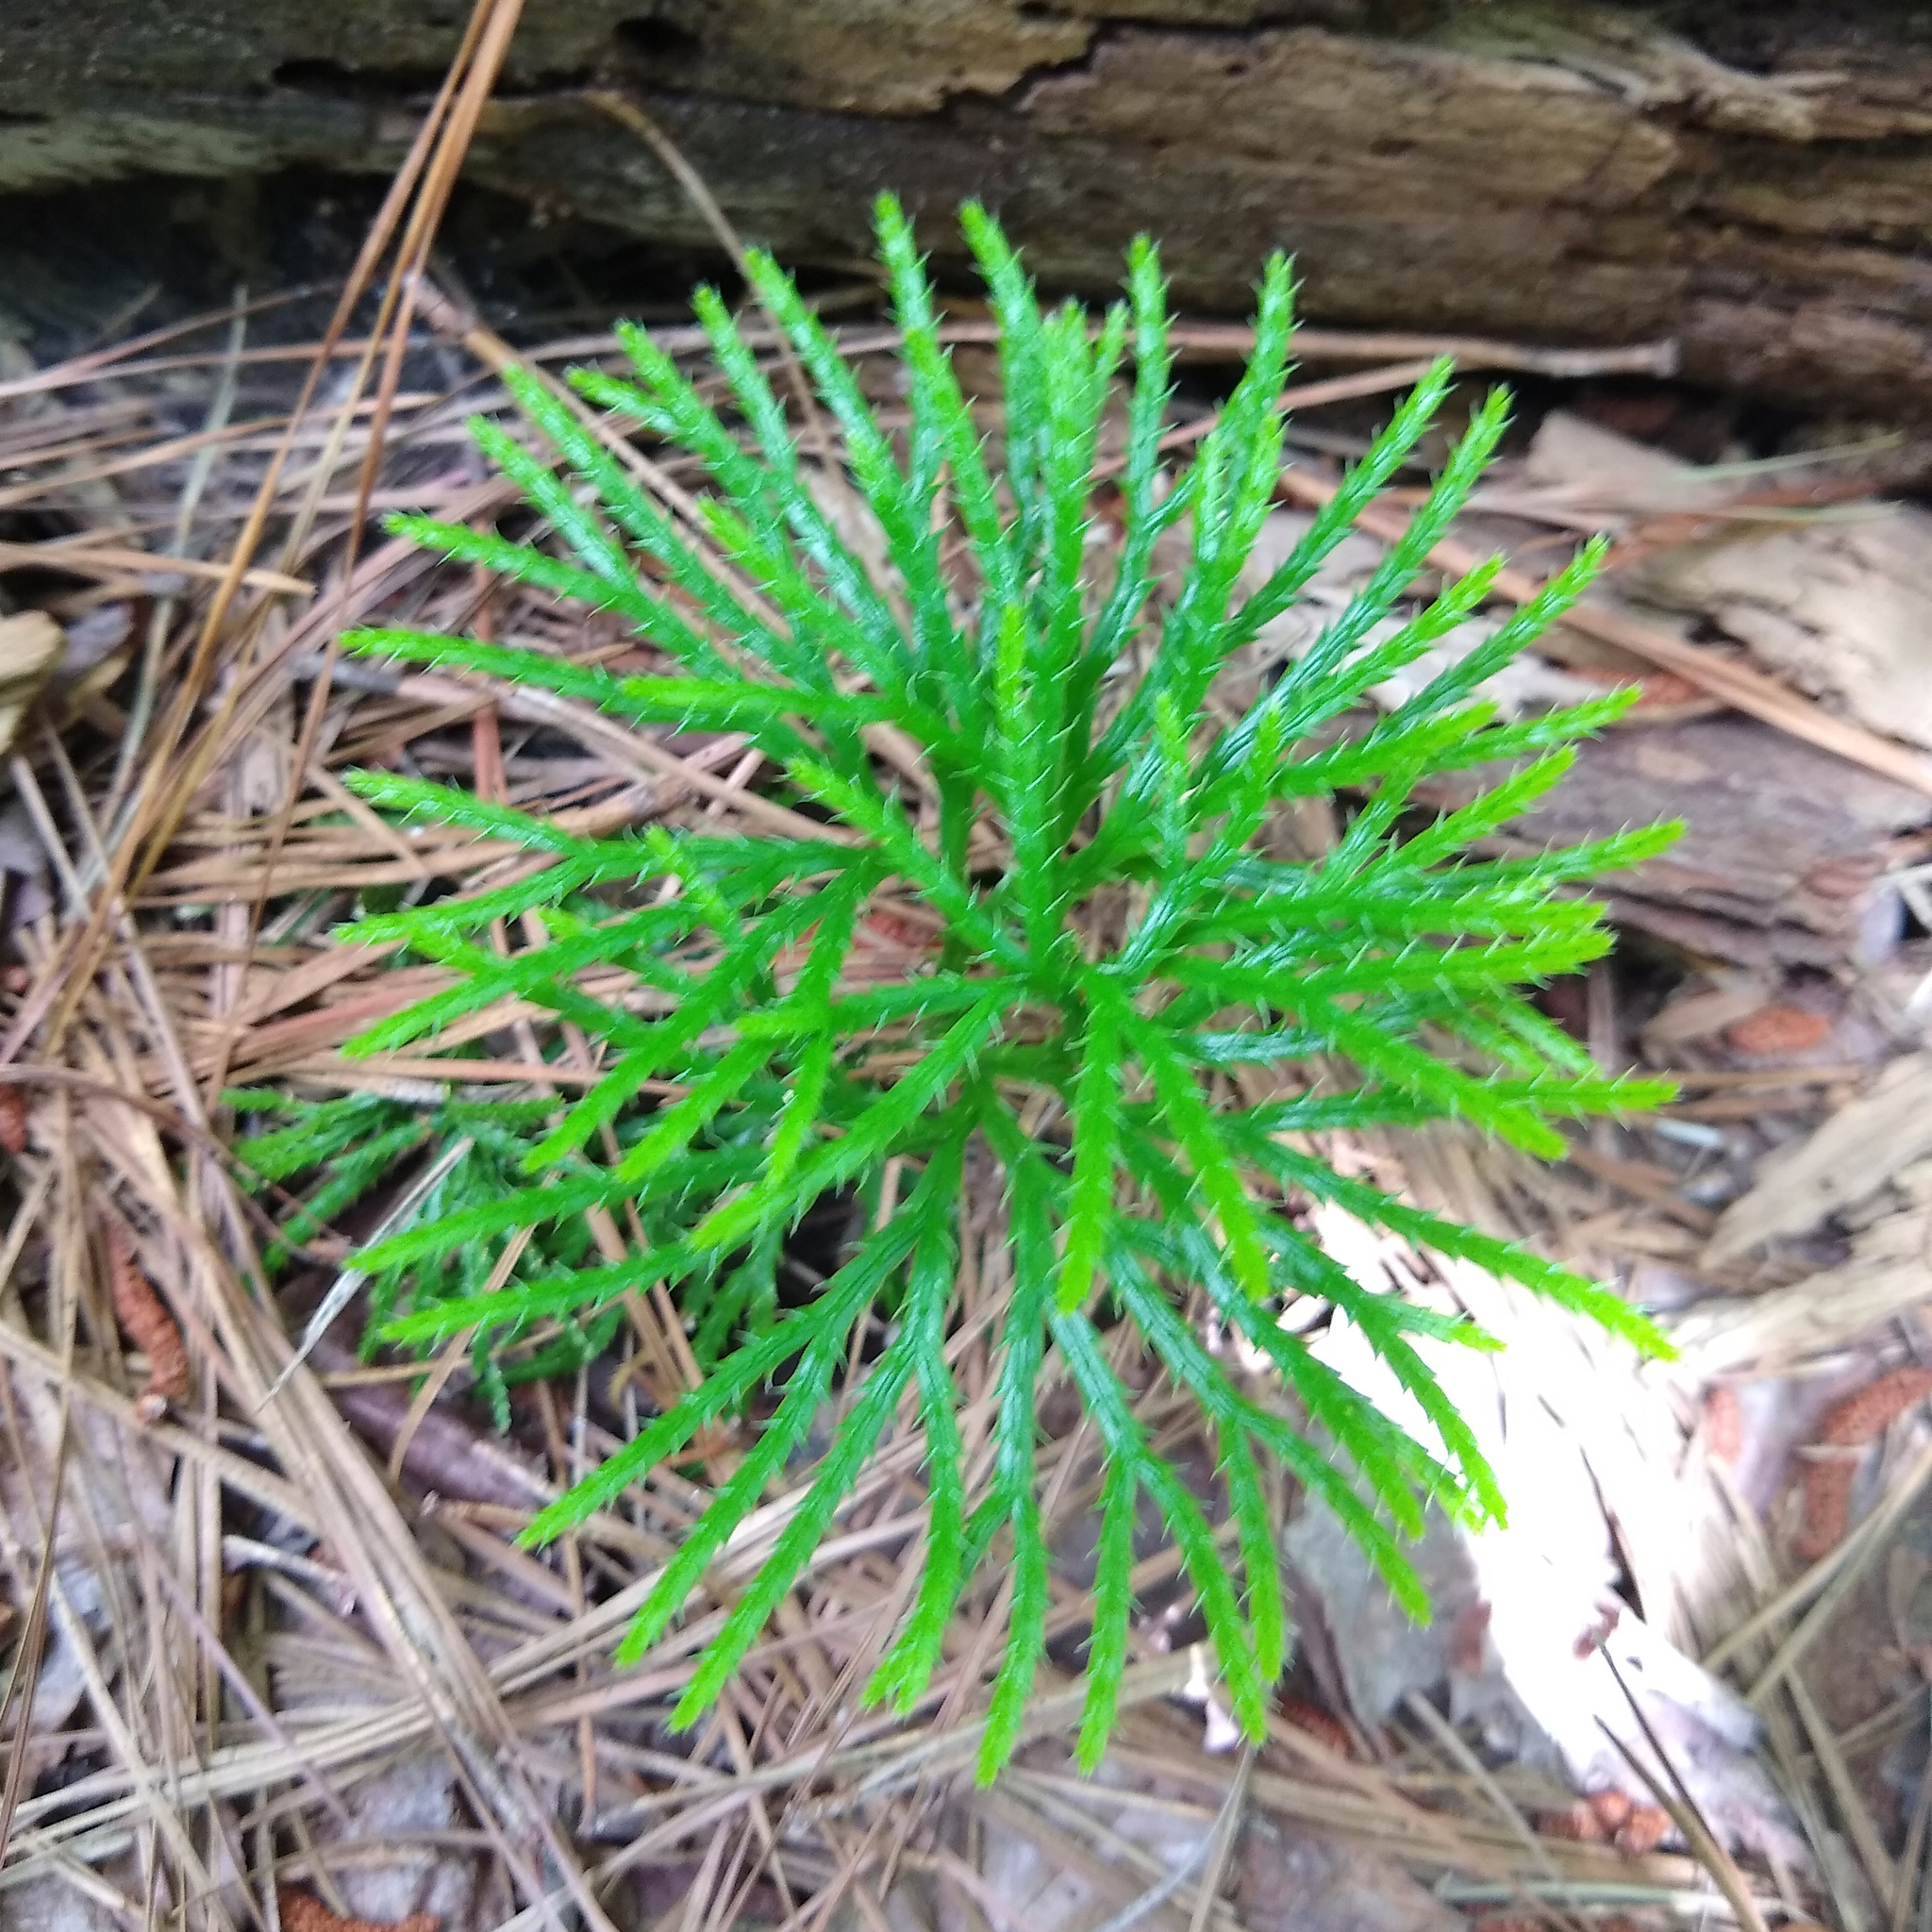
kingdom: Plantae
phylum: Tracheophyta
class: Lycopodiopsida
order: Lycopodiales
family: Lycopodiaceae
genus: Diphasiastrum
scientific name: Diphasiastrum digitatum
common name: Southern running-pine
